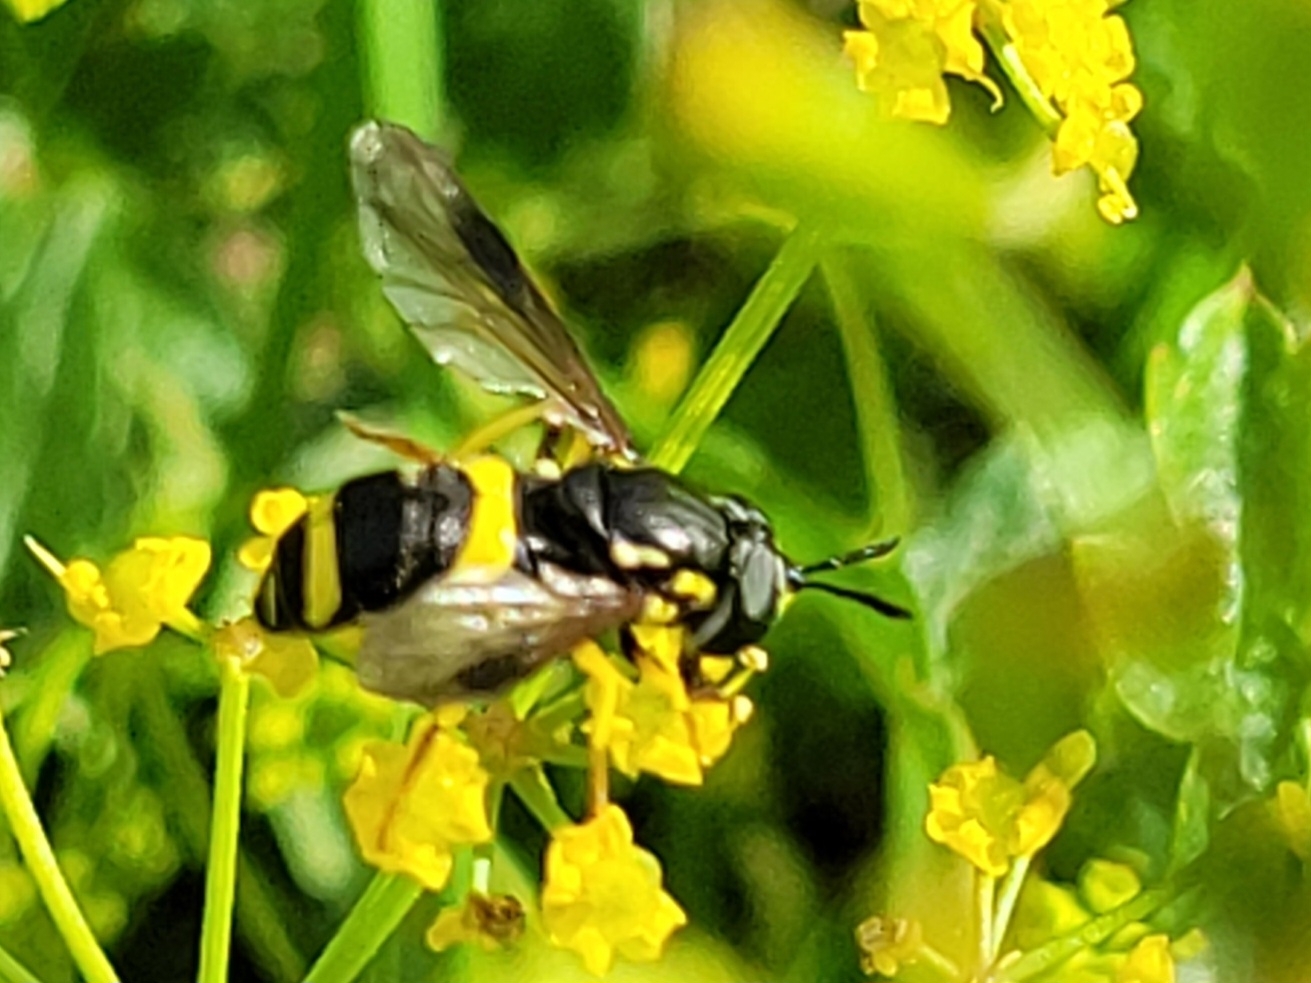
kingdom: Animalia
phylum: Arthropoda
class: Insecta
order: Diptera
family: Syrphidae
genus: Chrysotoxum
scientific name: Chrysotoxum bicincta
